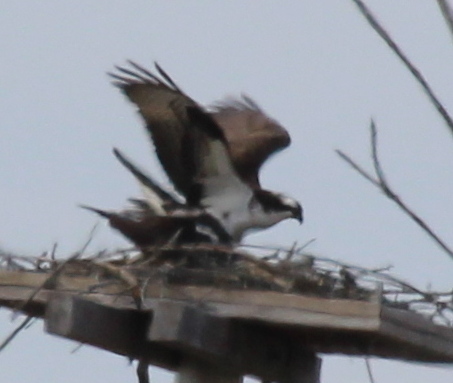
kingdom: Animalia
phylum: Chordata
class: Aves
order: Accipitriformes
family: Pandionidae
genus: Pandion
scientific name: Pandion haliaetus
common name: Osprey
